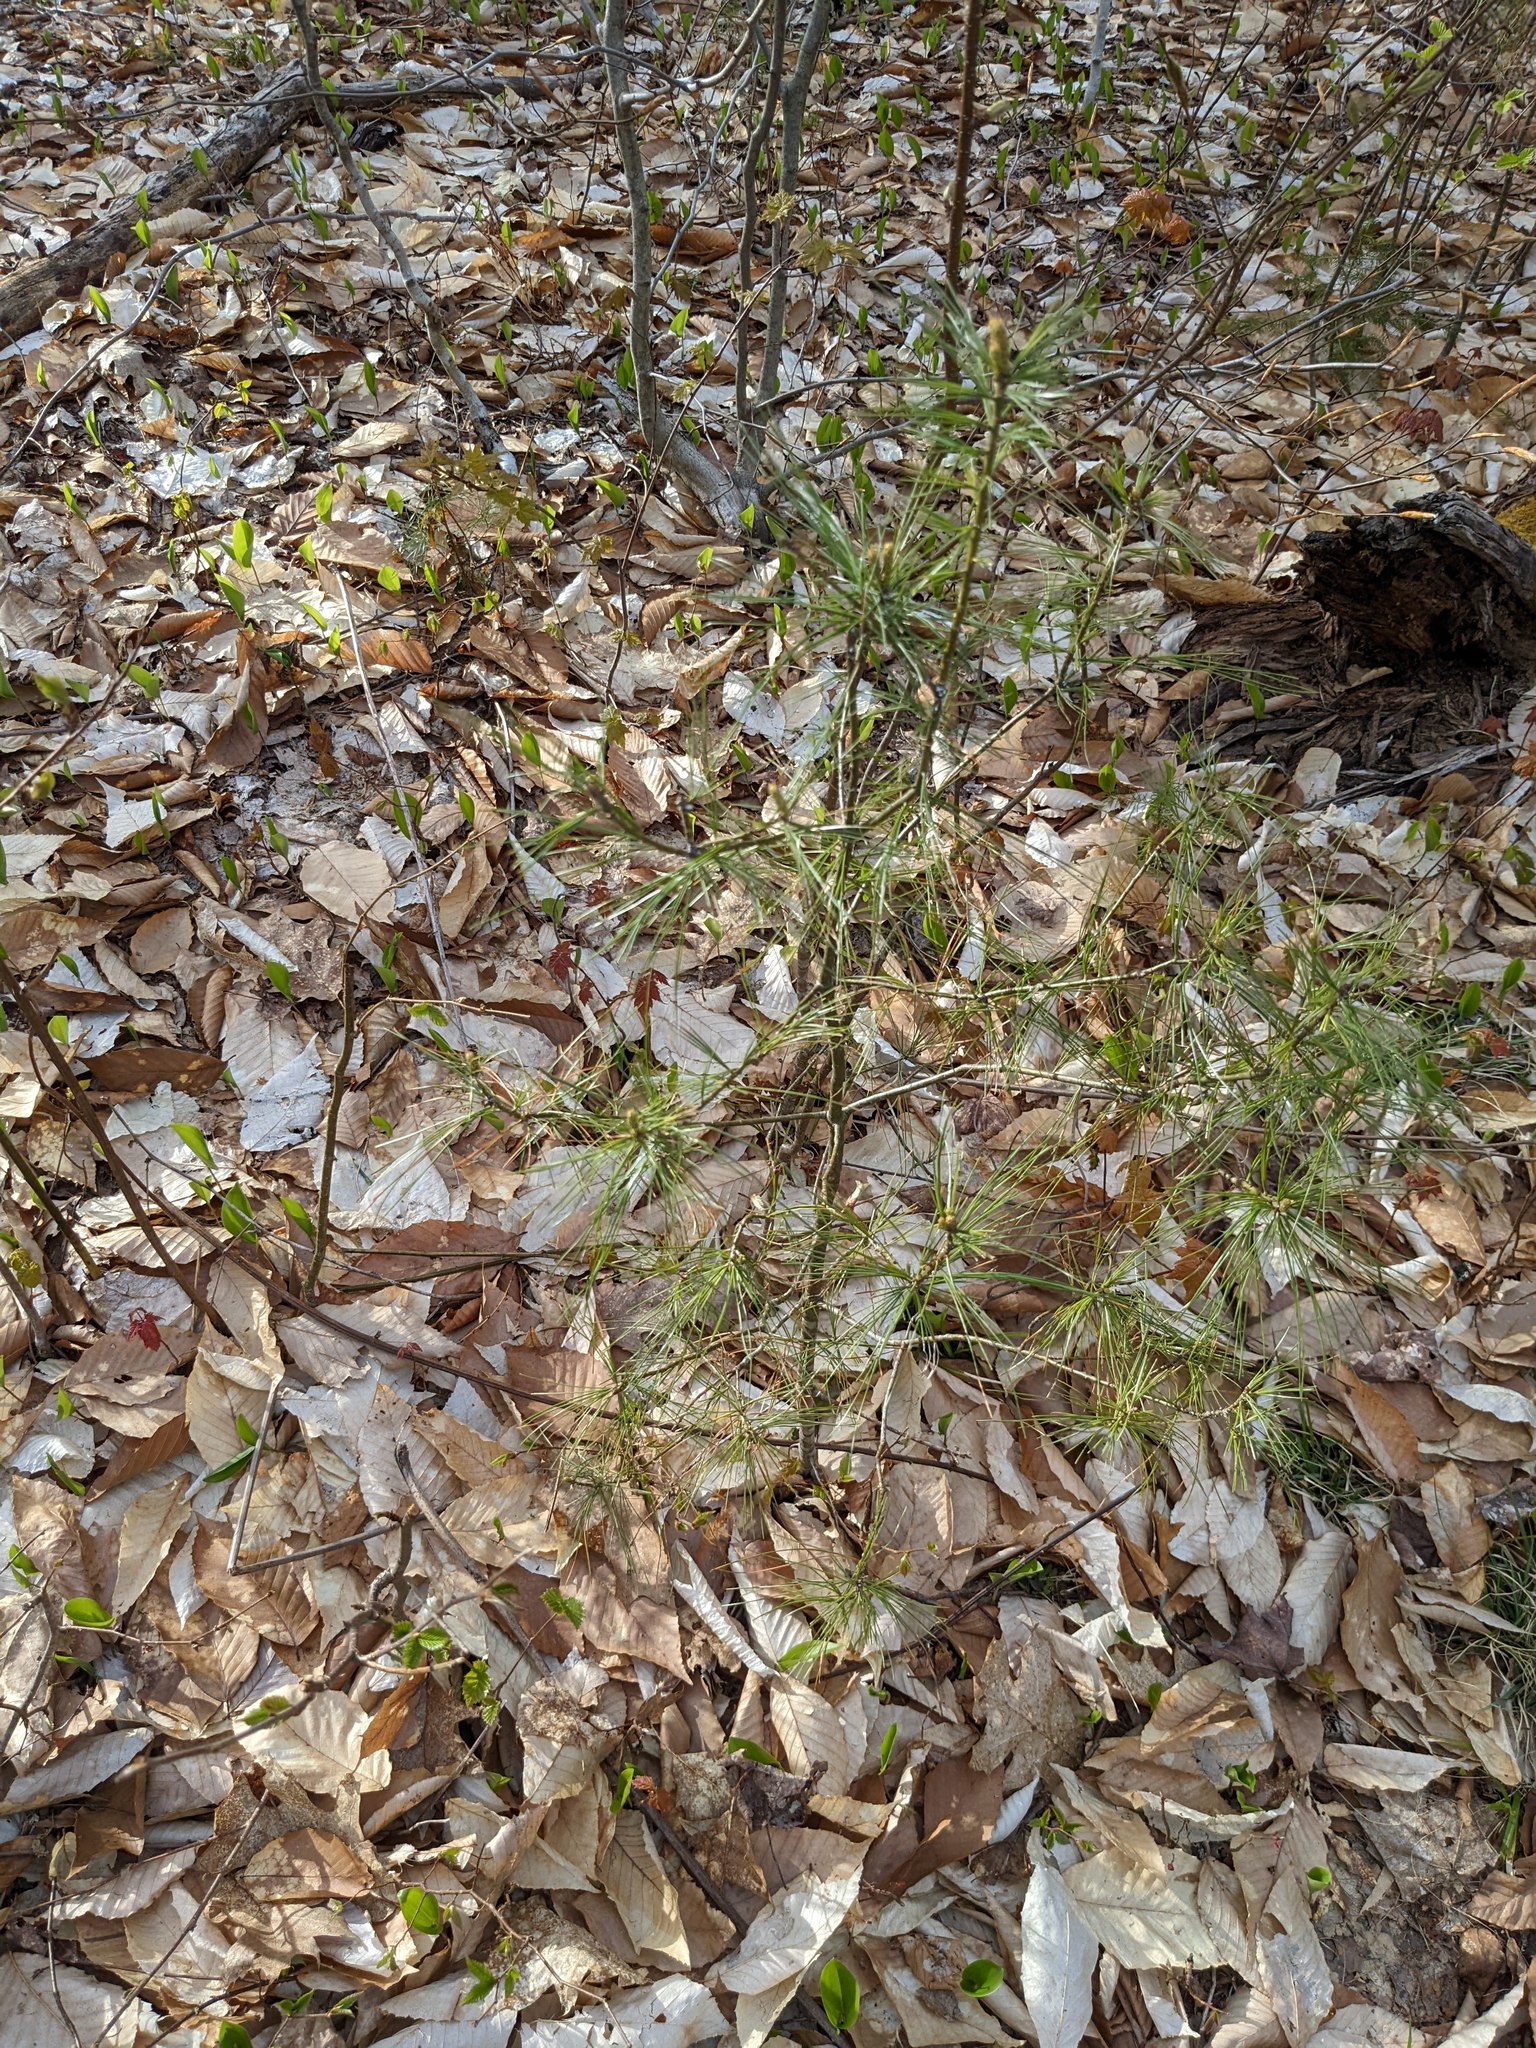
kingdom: Plantae
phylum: Tracheophyta
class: Pinopsida
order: Pinales
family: Pinaceae
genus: Pinus
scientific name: Pinus strobus
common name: Weymouth pine
